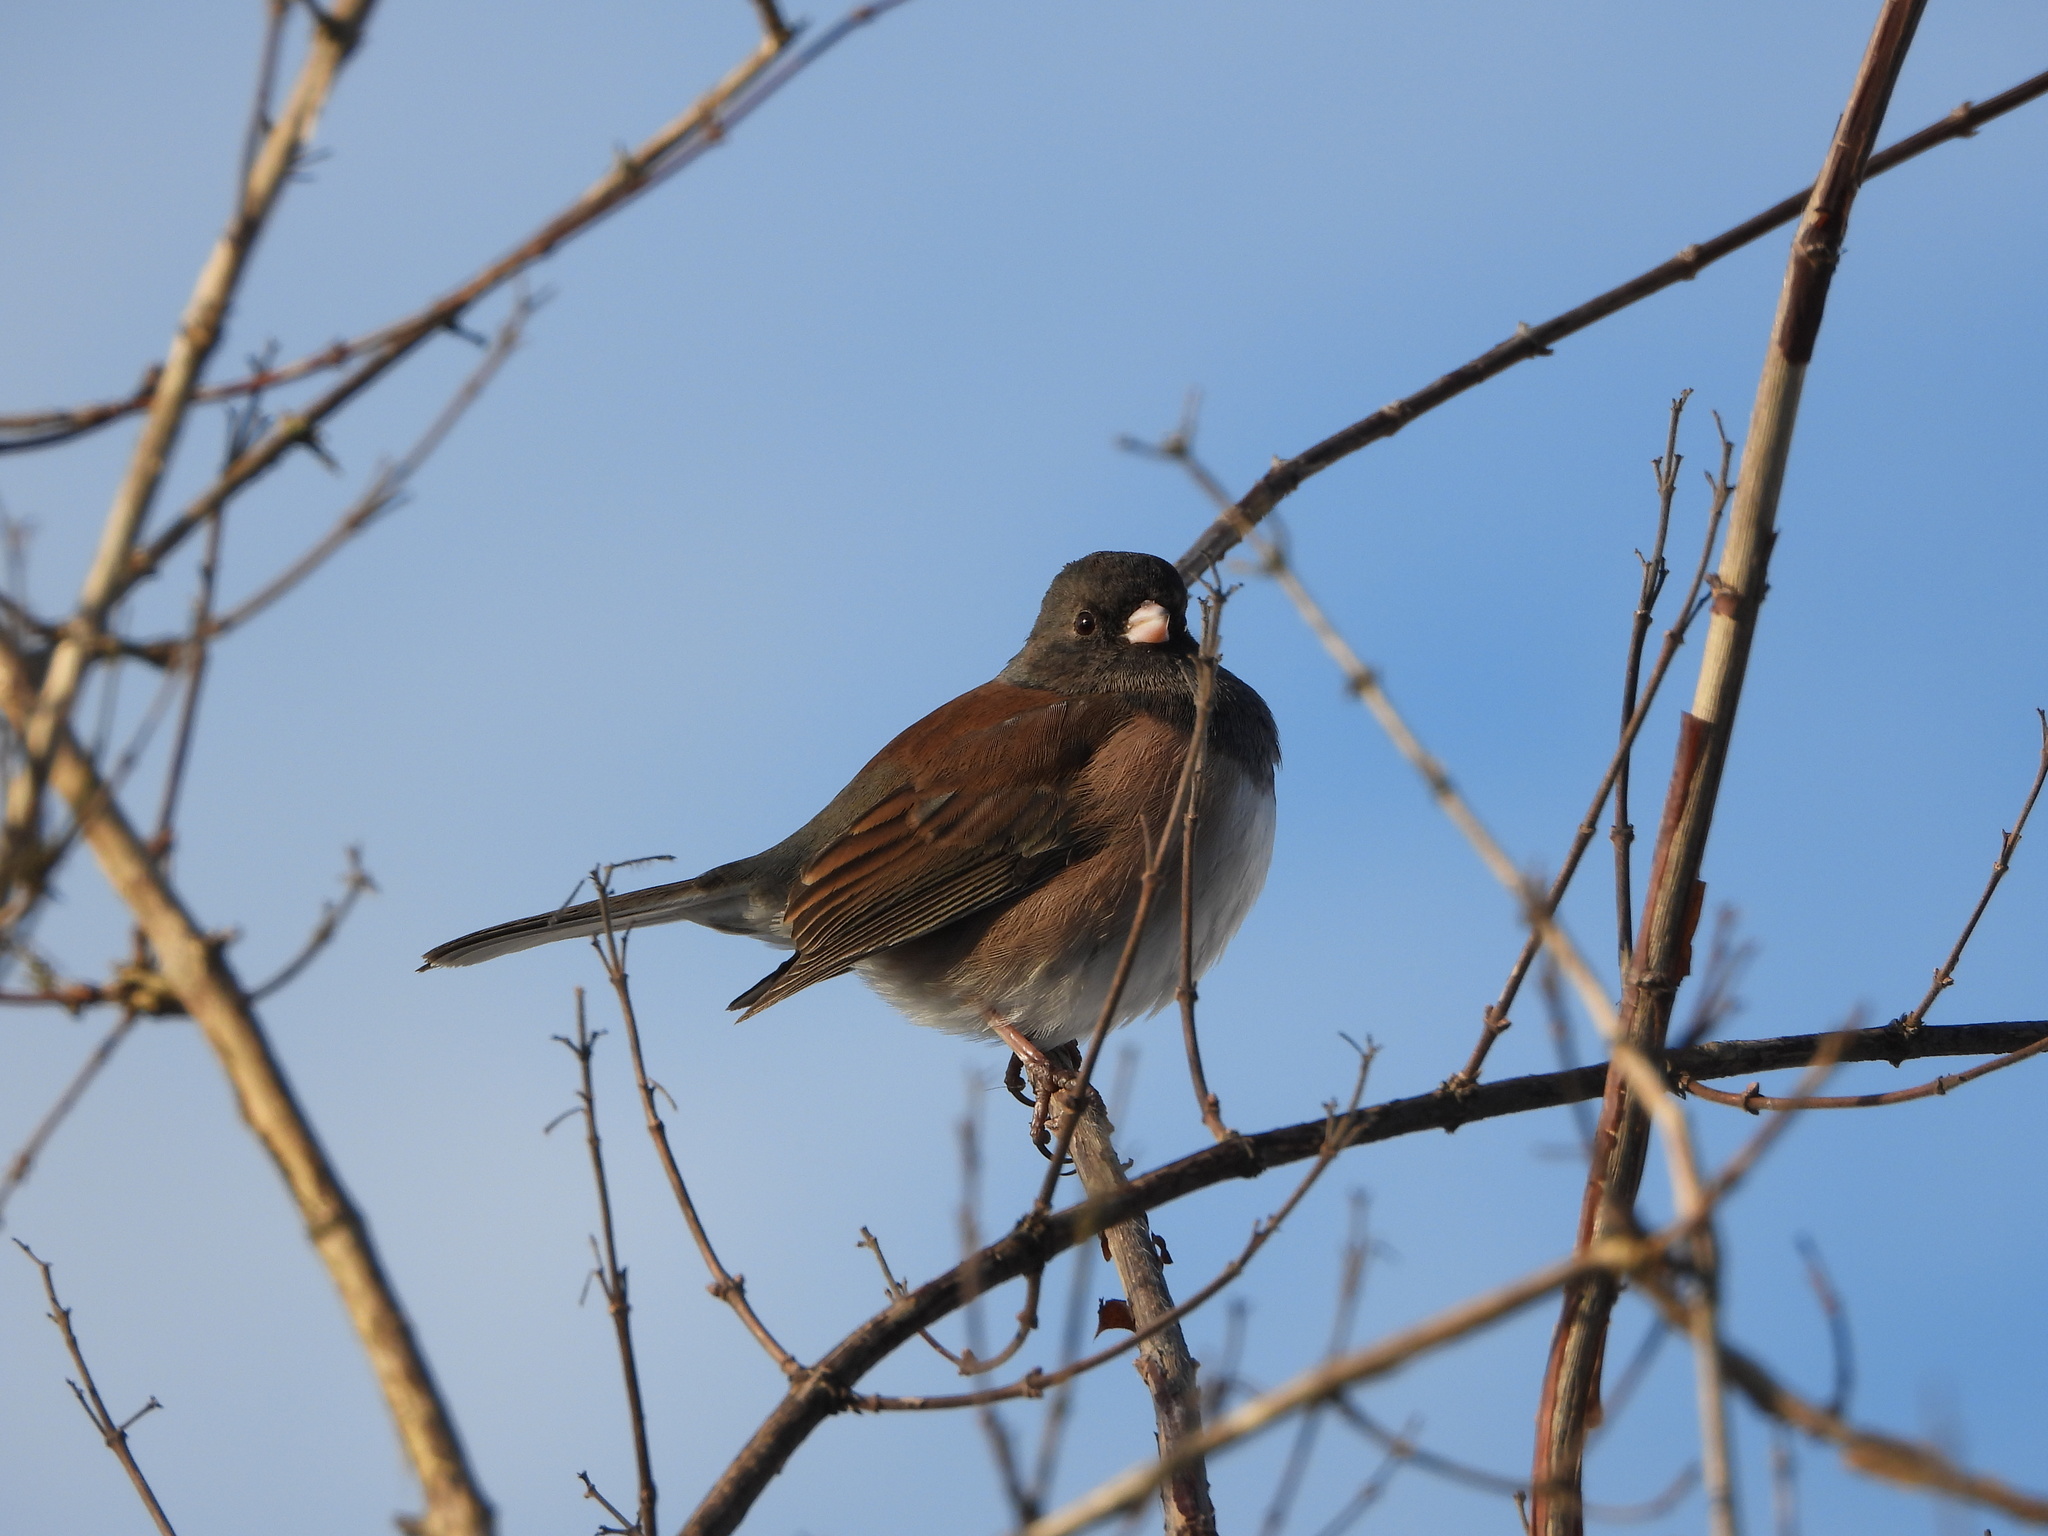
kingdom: Animalia
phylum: Chordata
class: Aves
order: Passeriformes
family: Passerellidae
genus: Junco
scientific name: Junco hyemalis
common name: Dark-eyed junco
